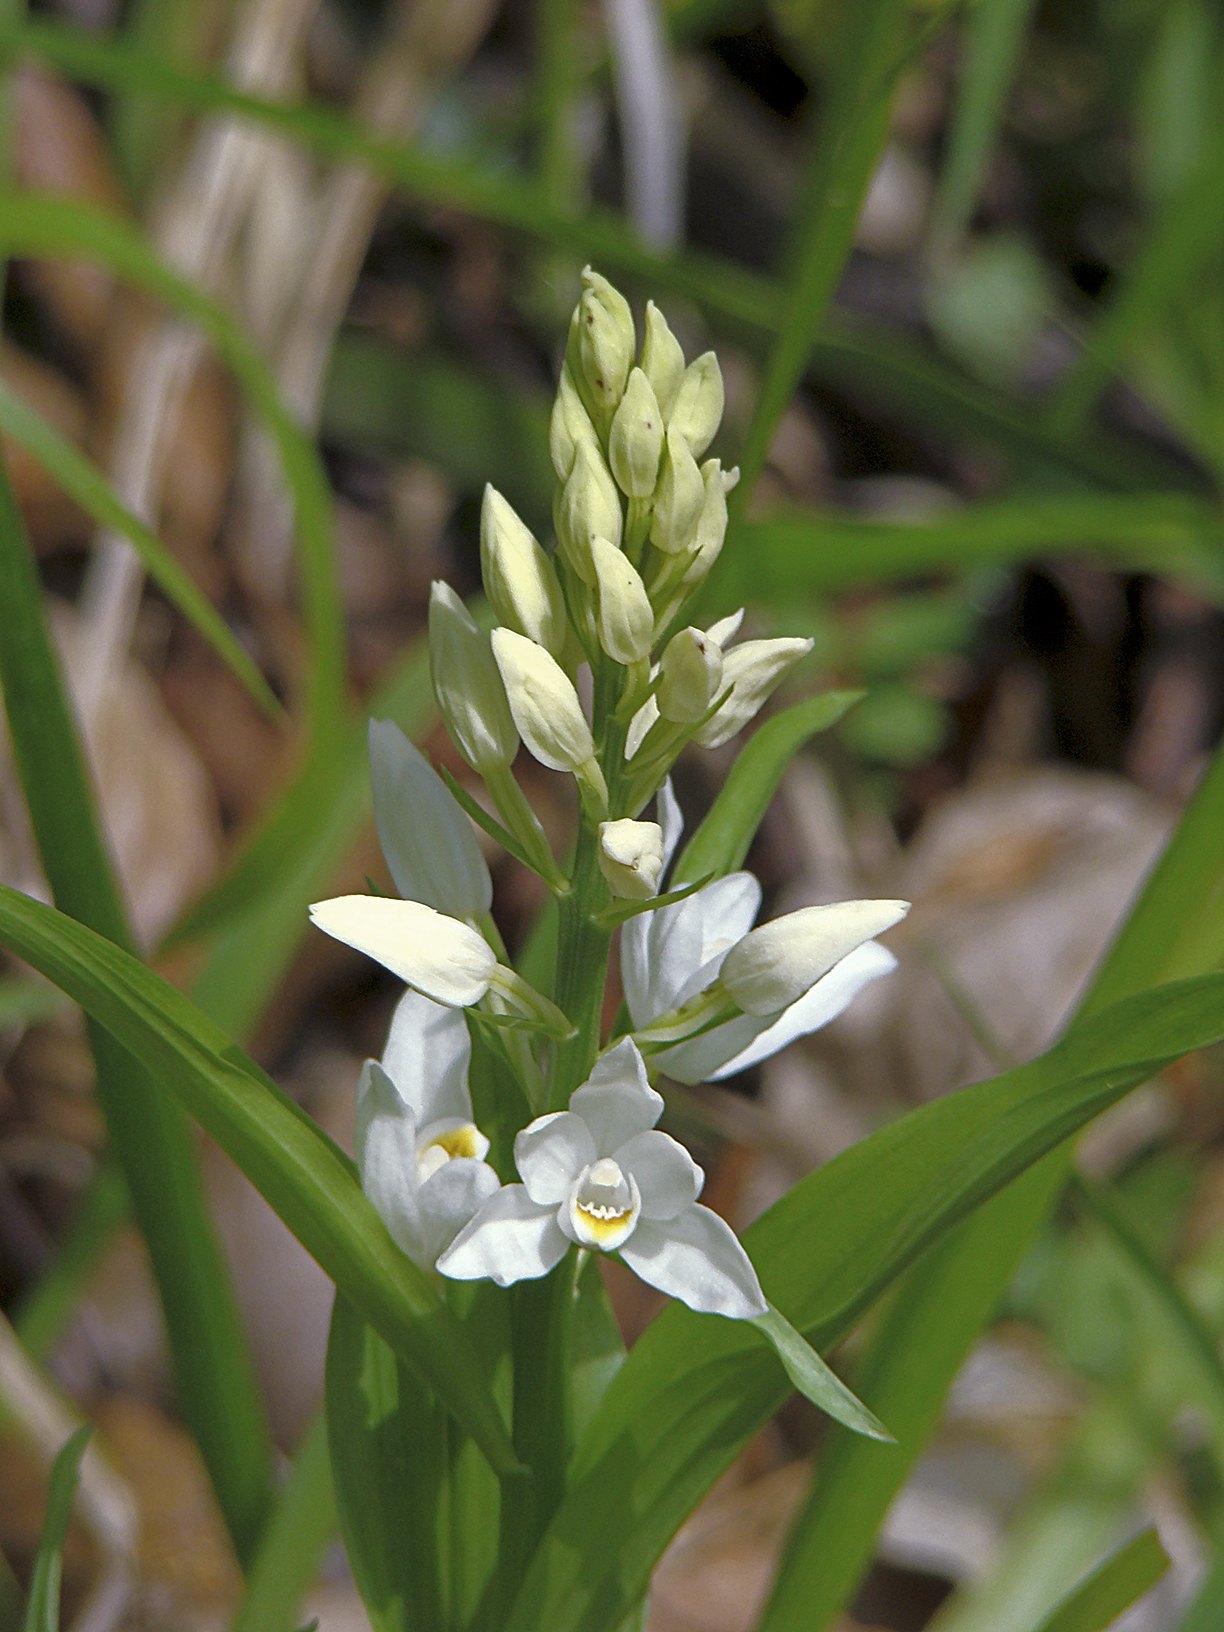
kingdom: Plantae
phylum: Tracheophyta
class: Liliopsida
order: Asparagales
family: Orchidaceae
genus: Cephalanthera
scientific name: Cephalanthera longifolia
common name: Narrow-leaved helleborine
